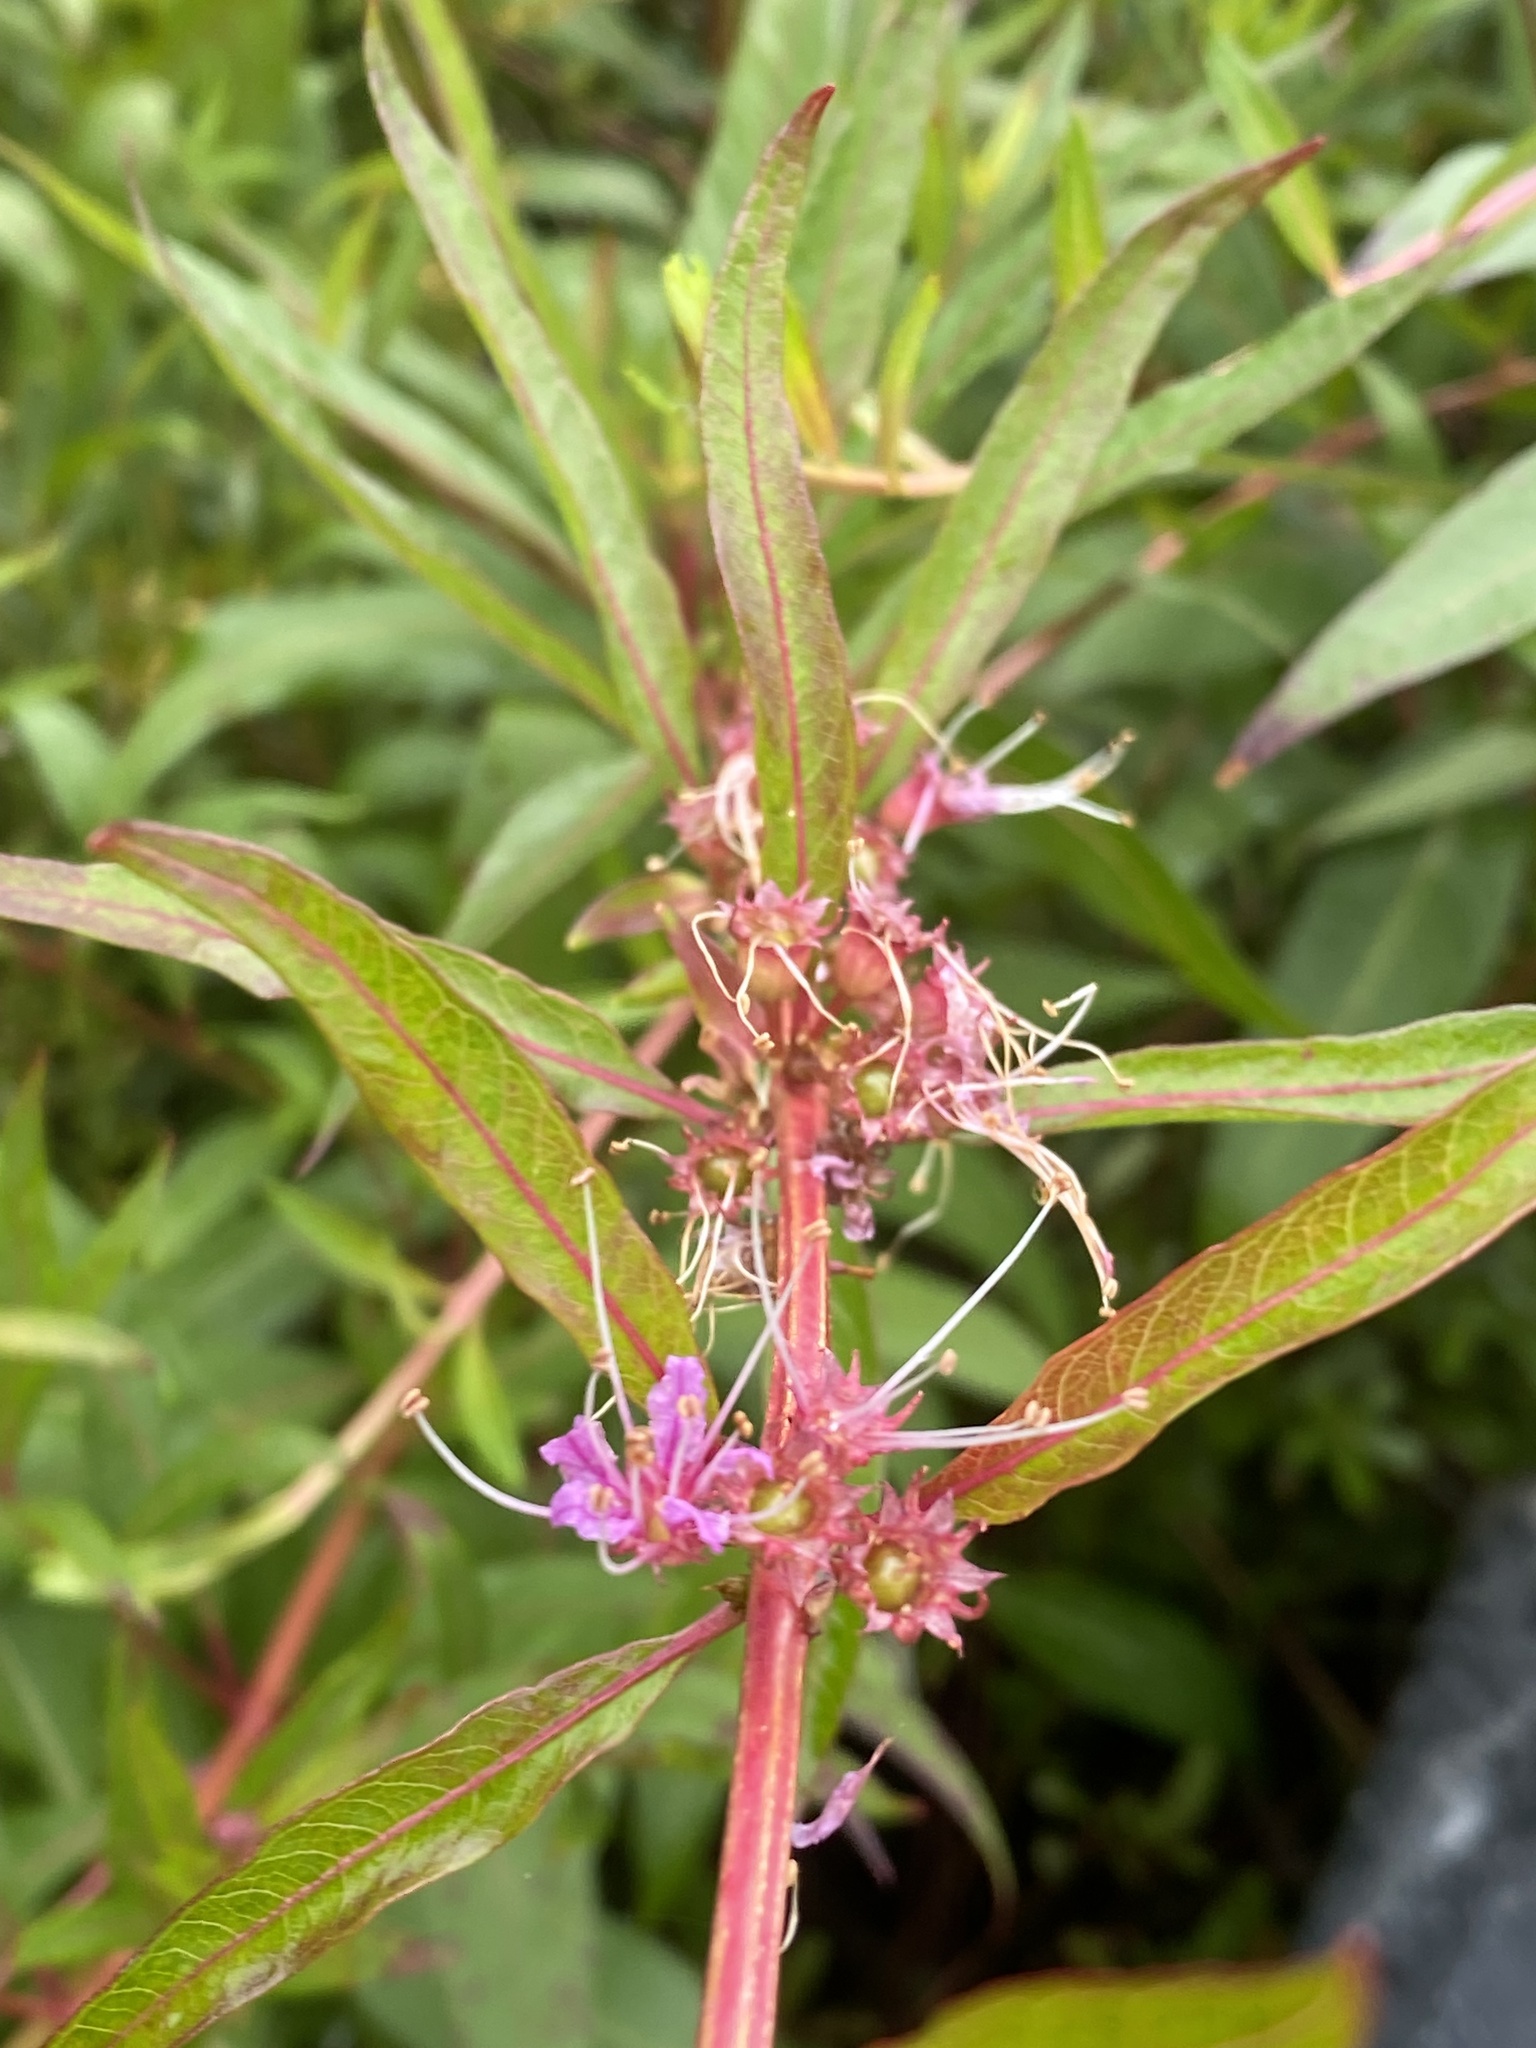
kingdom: Plantae
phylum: Tracheophyta
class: Magnoliopsida
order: Myrtales
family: Lythraceae
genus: Decodon
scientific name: Decodon verticillatus
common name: Hairy swamp loosestrife
